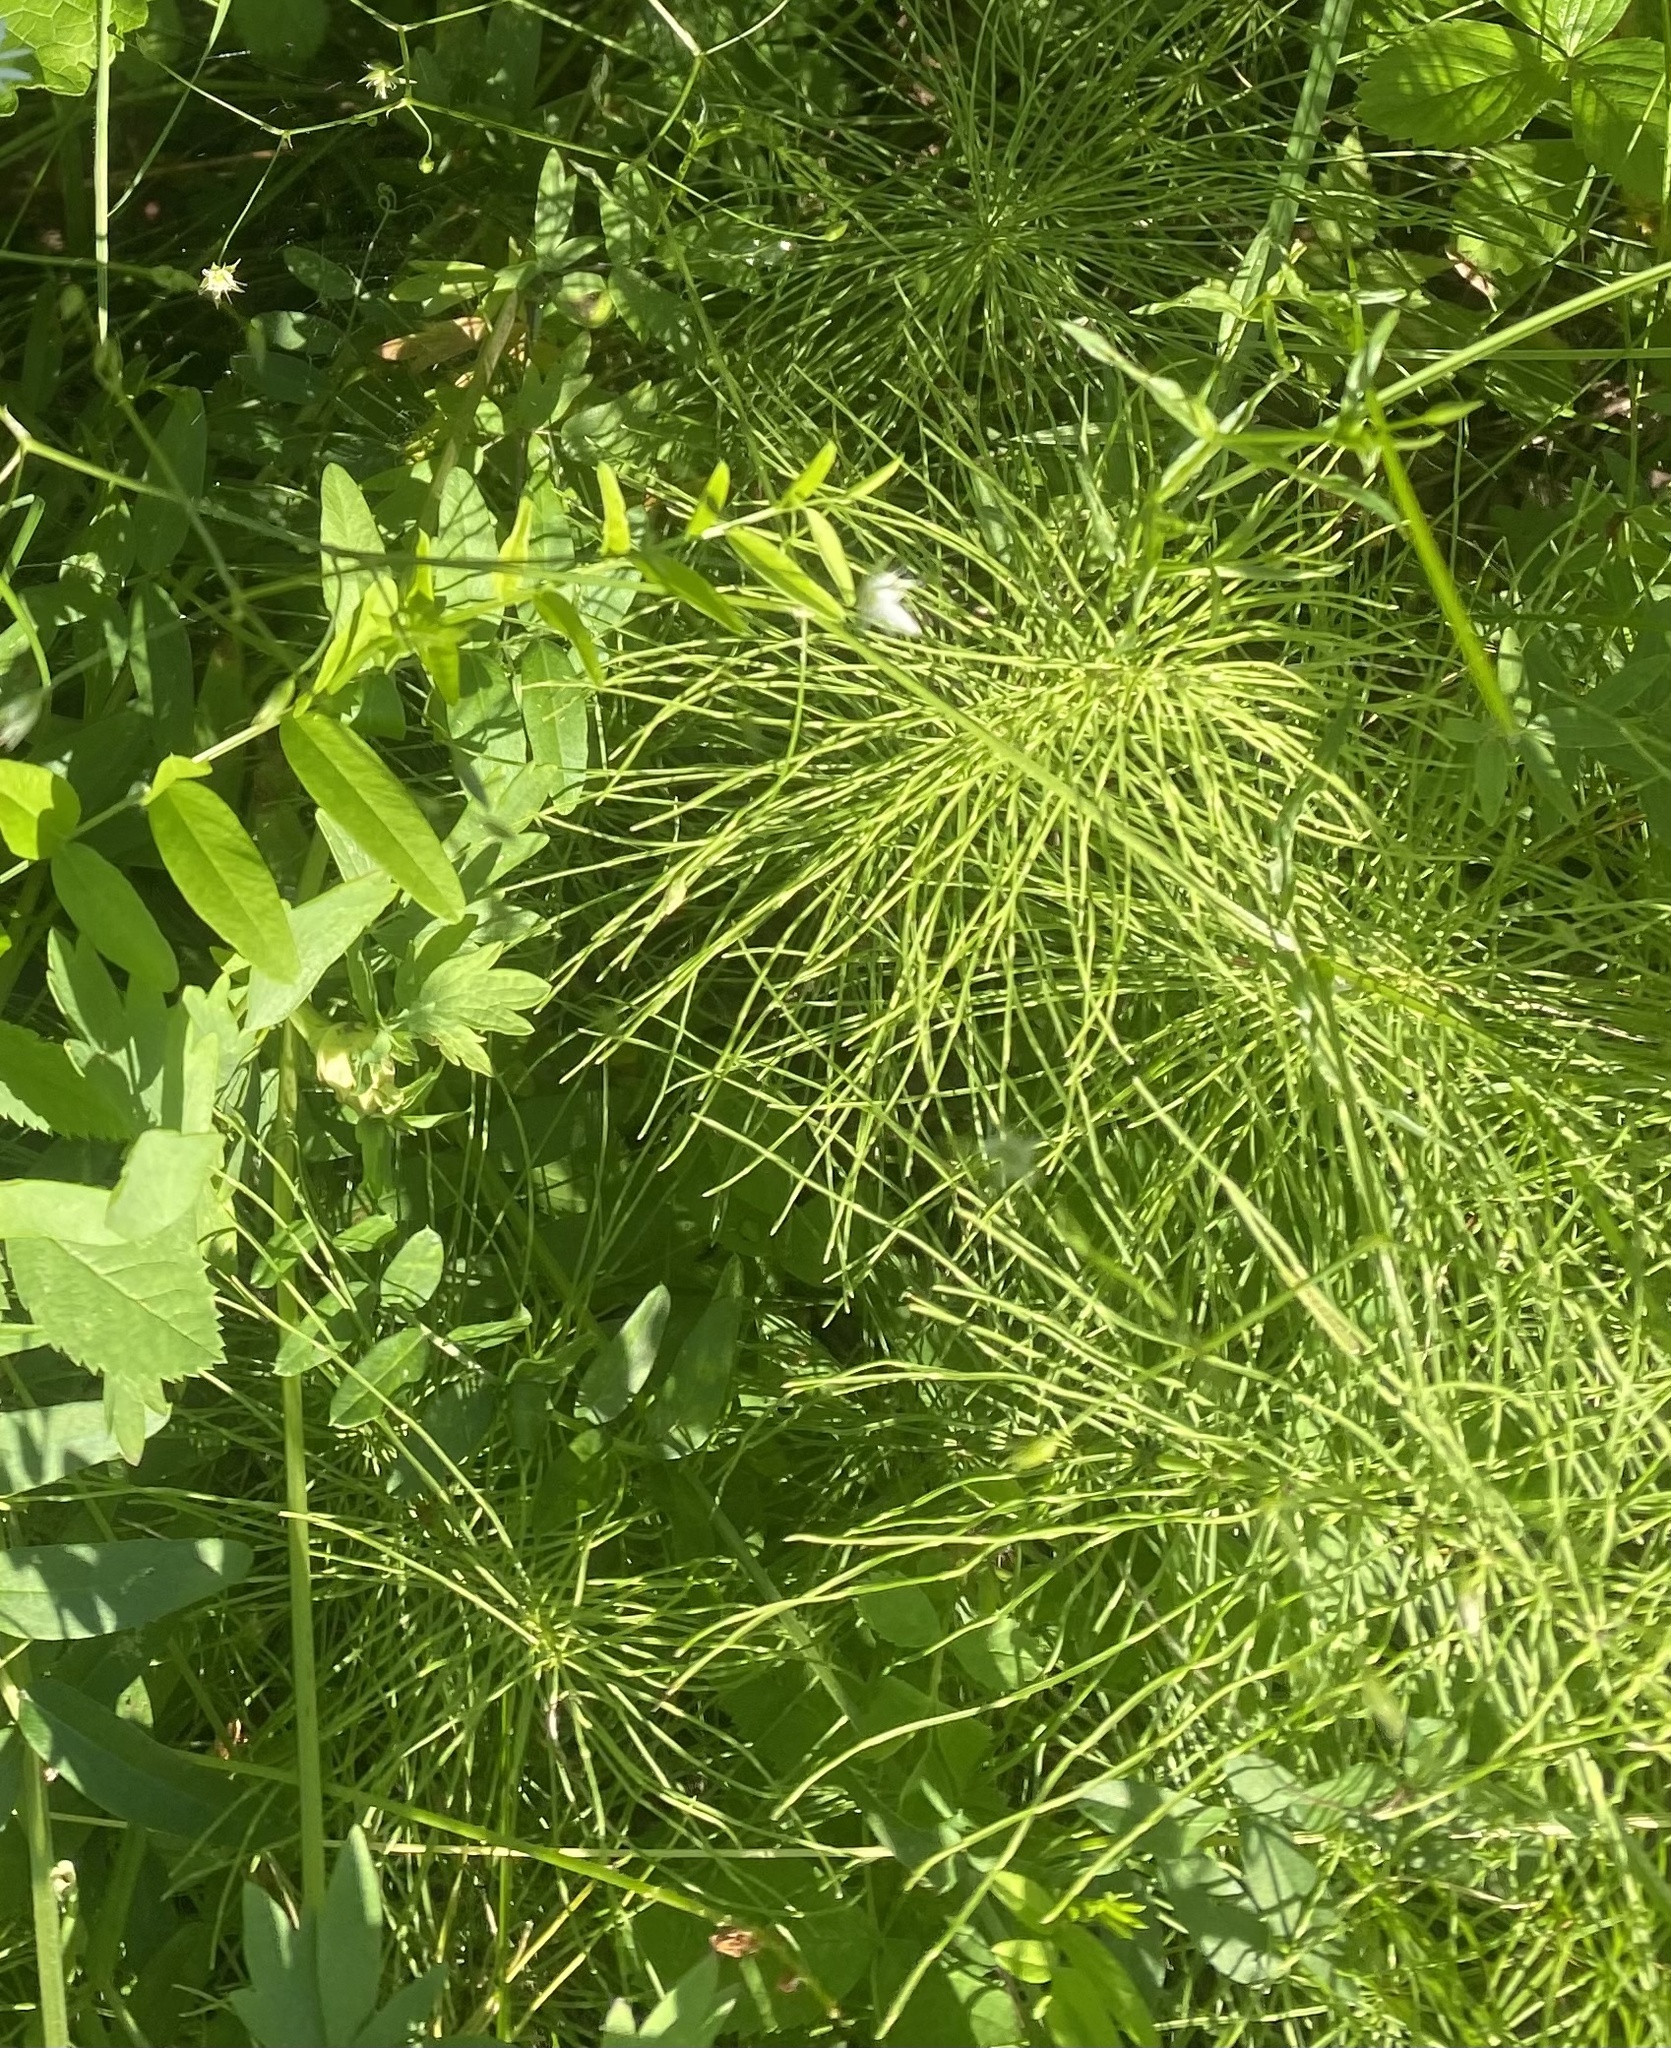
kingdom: Plantae
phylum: Tracheophyta
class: Polypodiopsida
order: Equisetales
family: Equisetaceae
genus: Equisetum
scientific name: Equisetum pratense
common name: Meadow horsetail
